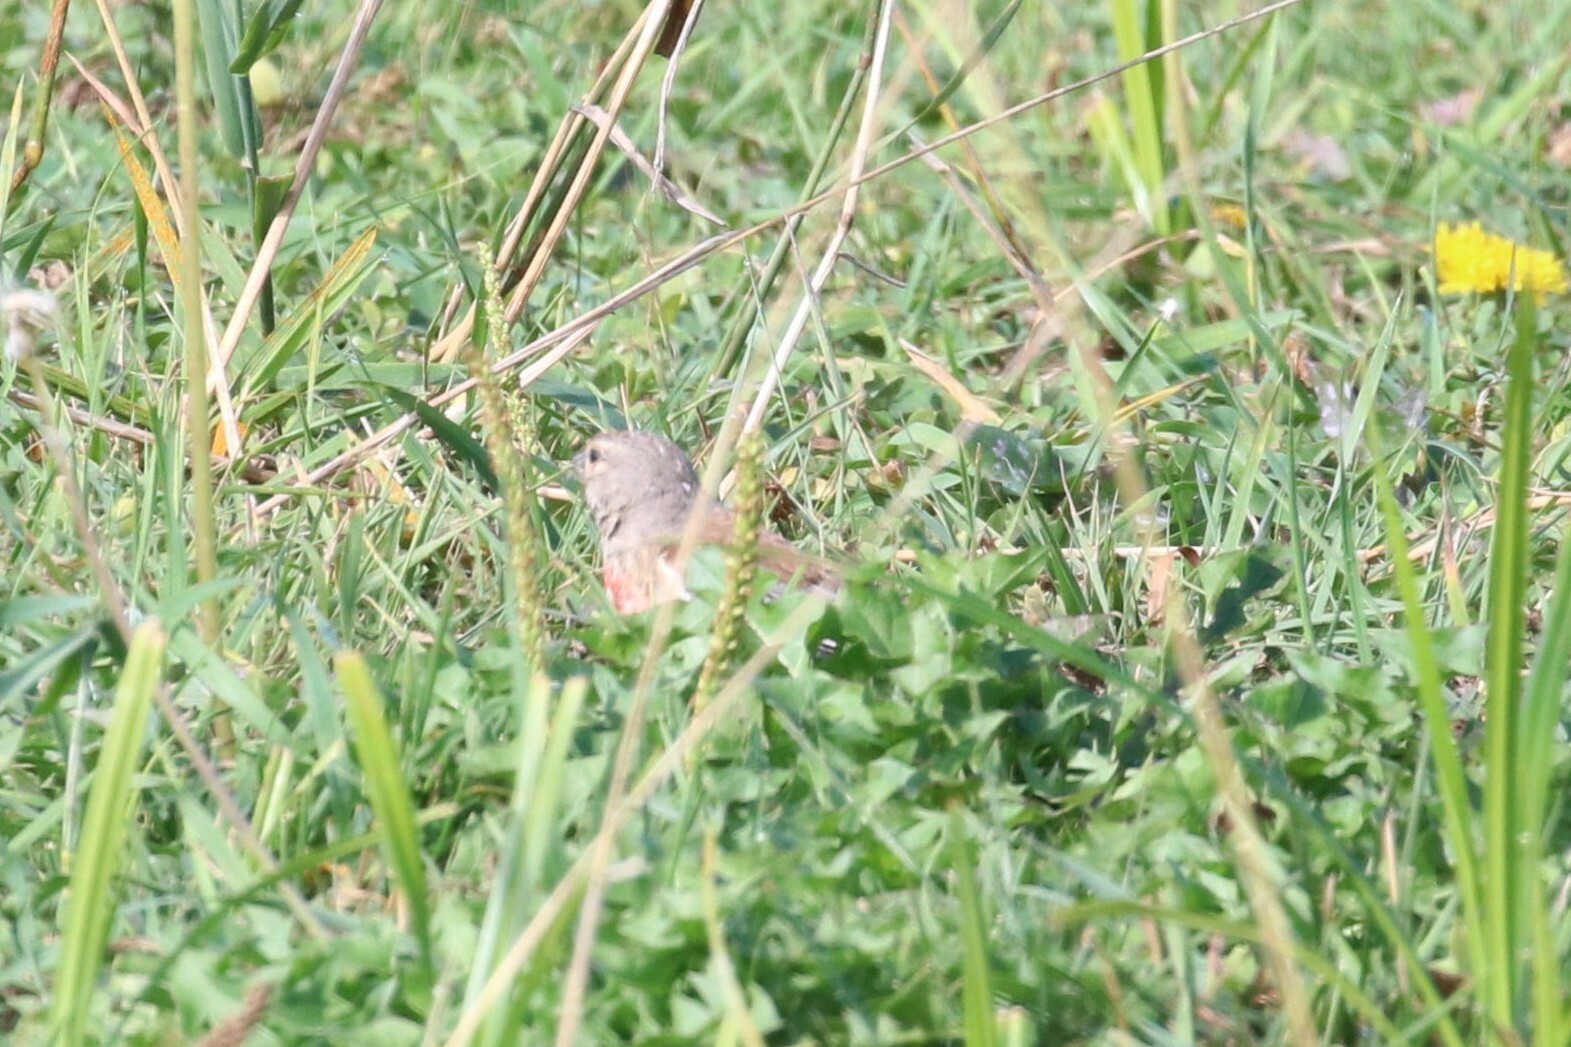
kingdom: Animalia
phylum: Chordata
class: Aves
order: Passeriformes
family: Fringillidae
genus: Linaria
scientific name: Linaria cannabina
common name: Common linnet
